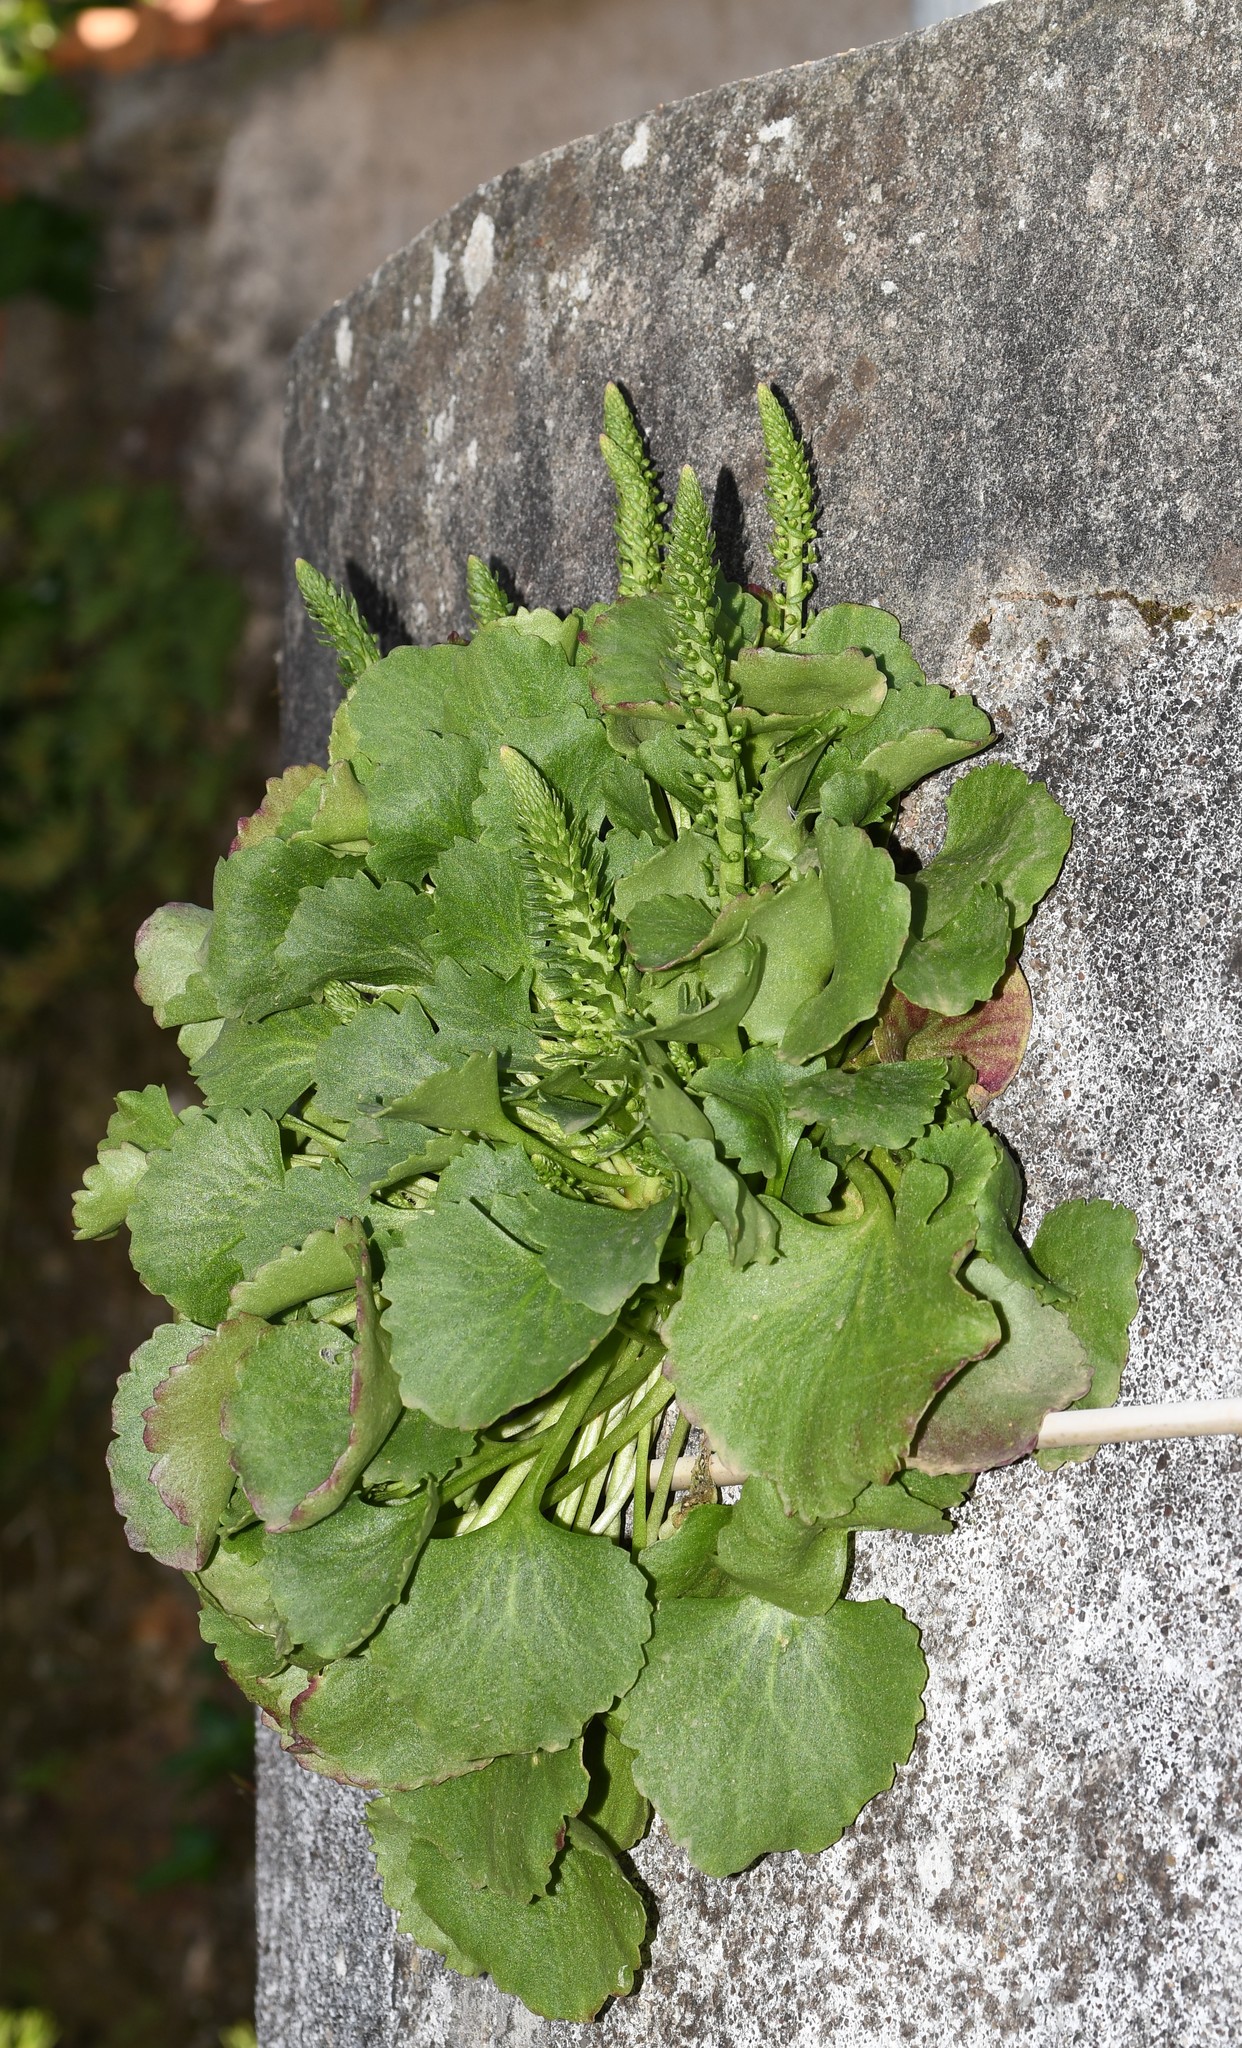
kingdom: Plantae
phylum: Tracheophyta
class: Magnoliopsida
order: Saxifragales
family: Crassulaceae
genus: Umbilicus
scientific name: Umbilicus rupestris
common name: Navelwort
